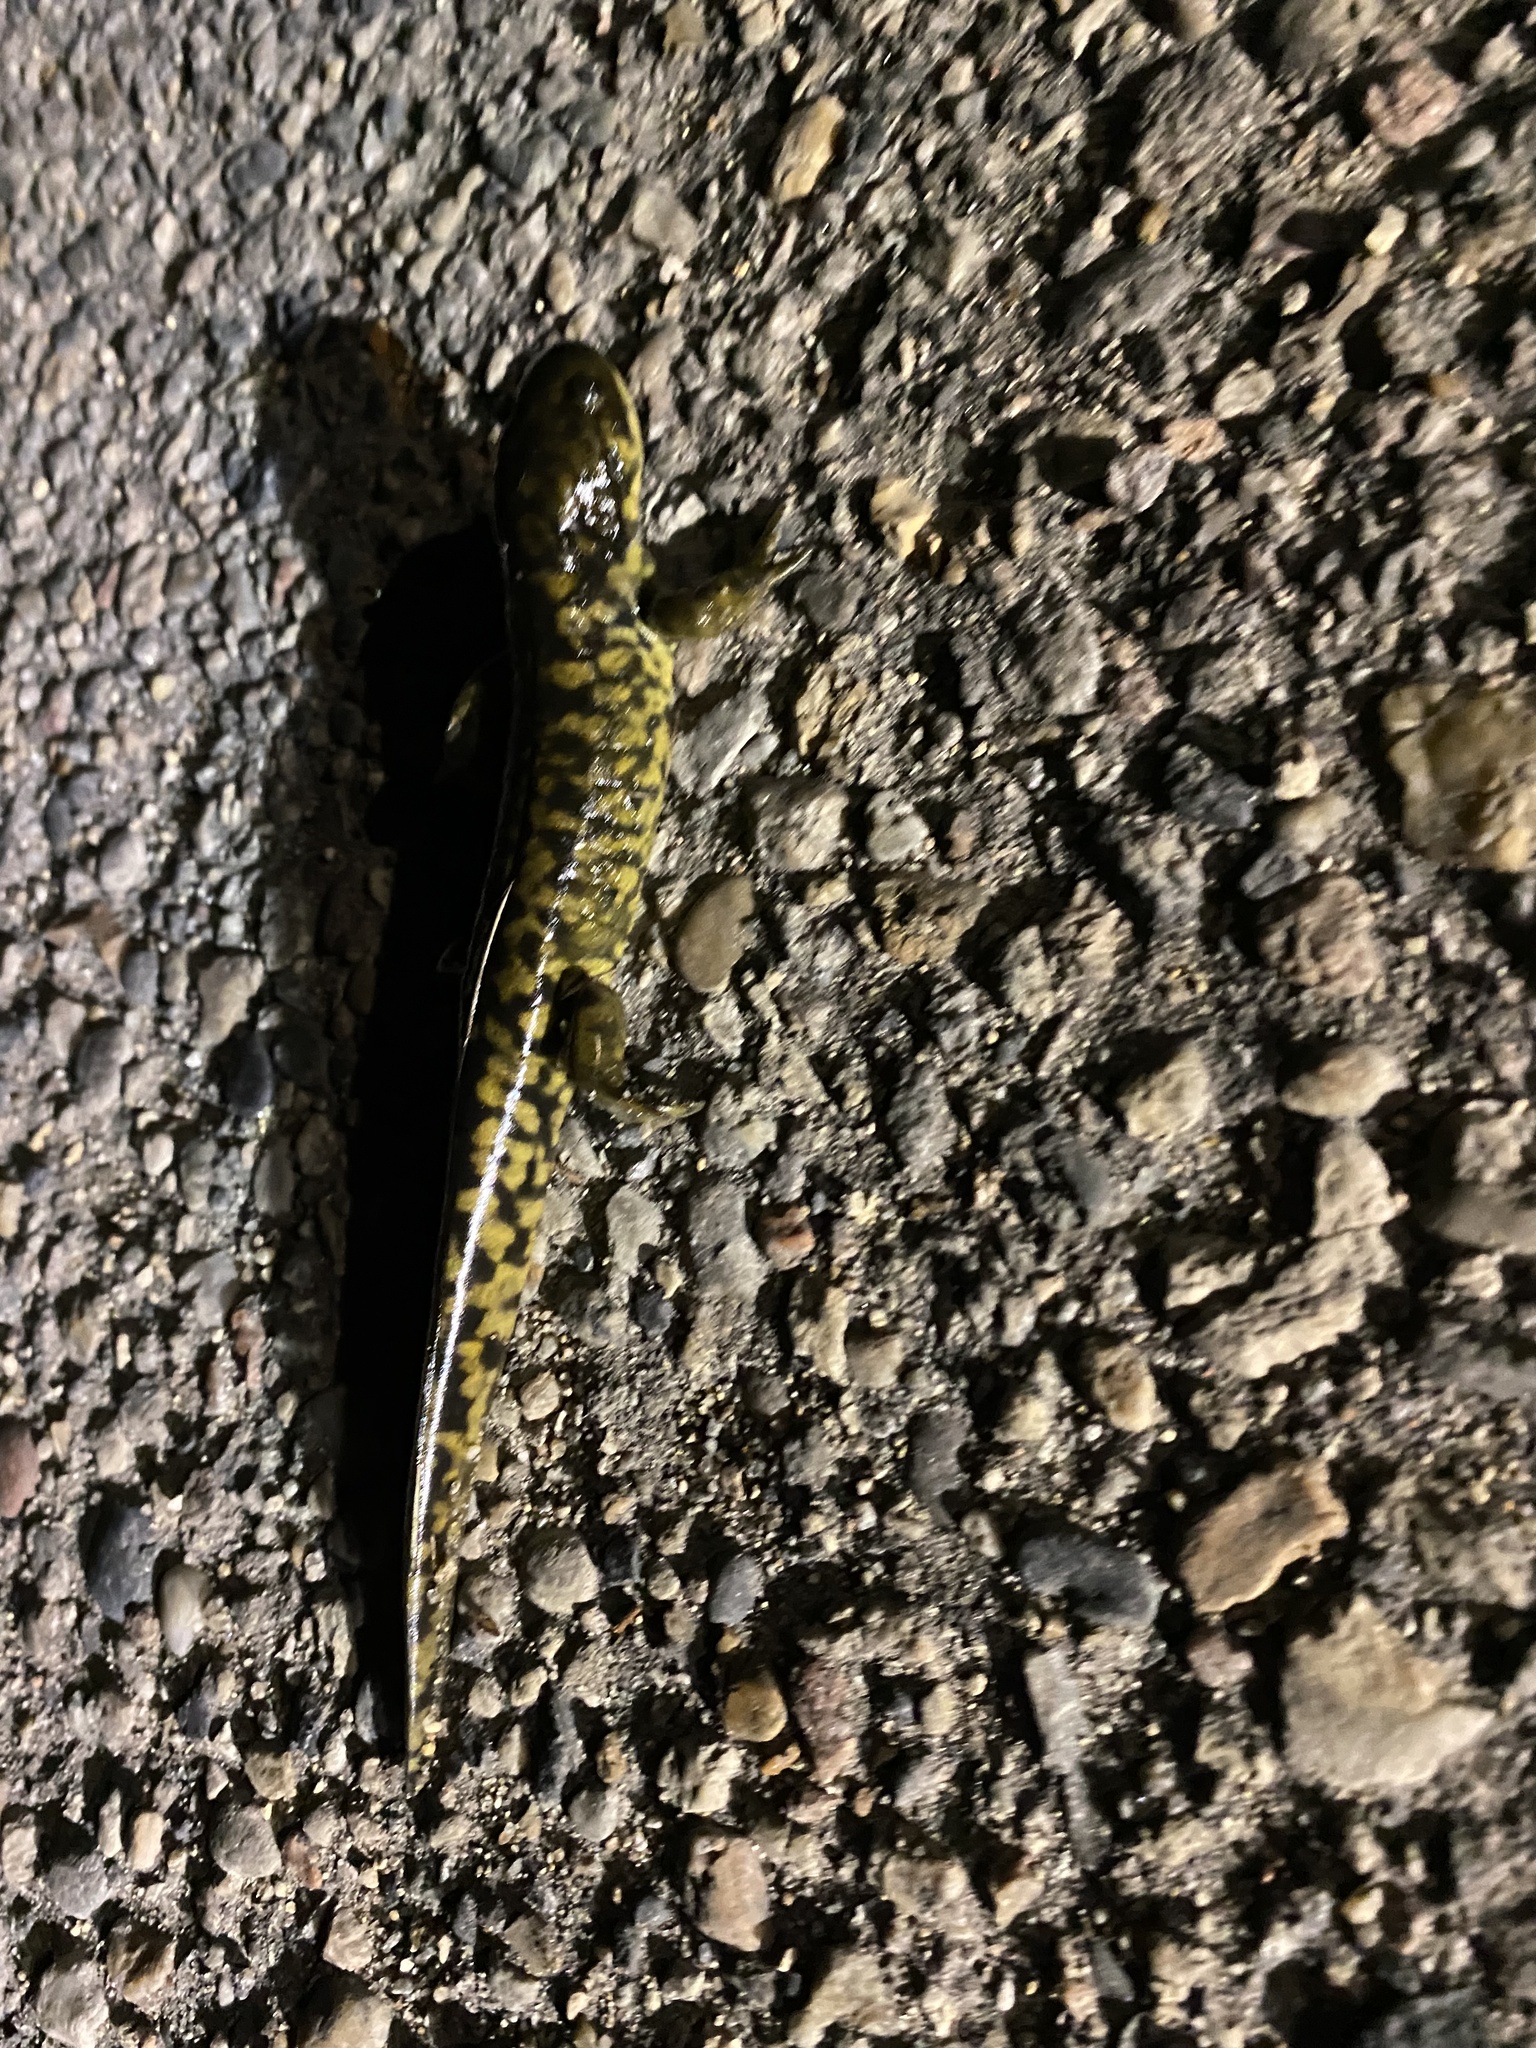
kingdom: Animalia
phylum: Chordata
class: Amphibia
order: Caudata
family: Ambystomatidae
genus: Ambystoma
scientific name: Ambystoma mavortium
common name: Western tiger salamander
